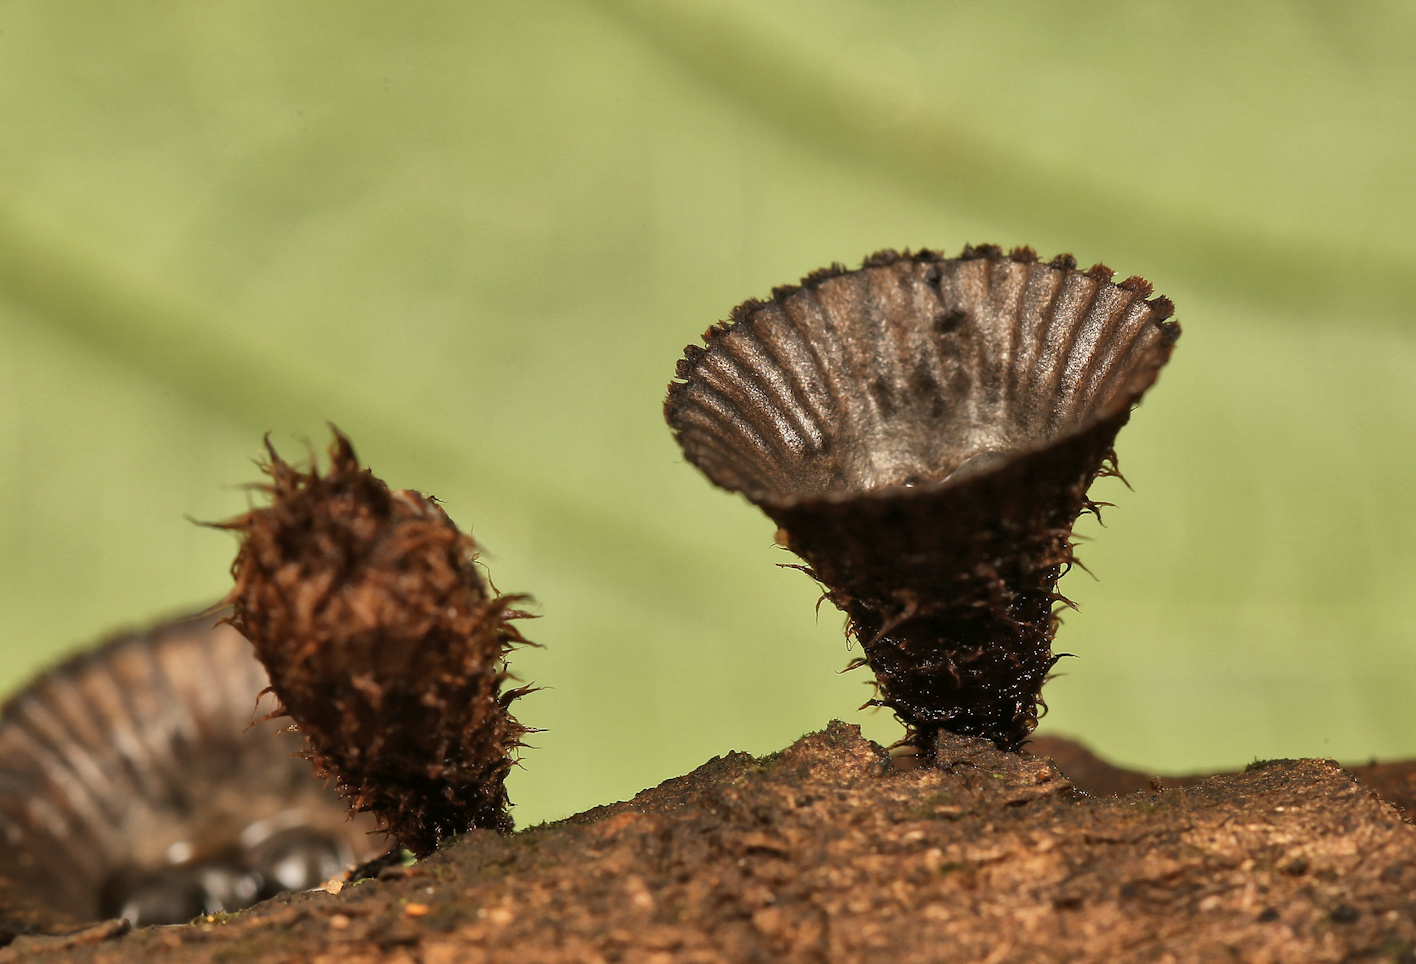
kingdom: Fungi
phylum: Basidiomycota
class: Agaricomycetes
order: Agaricales
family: Agaricaceae
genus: Cyathus
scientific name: Cyathus striatus
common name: Fluted bird's nest
